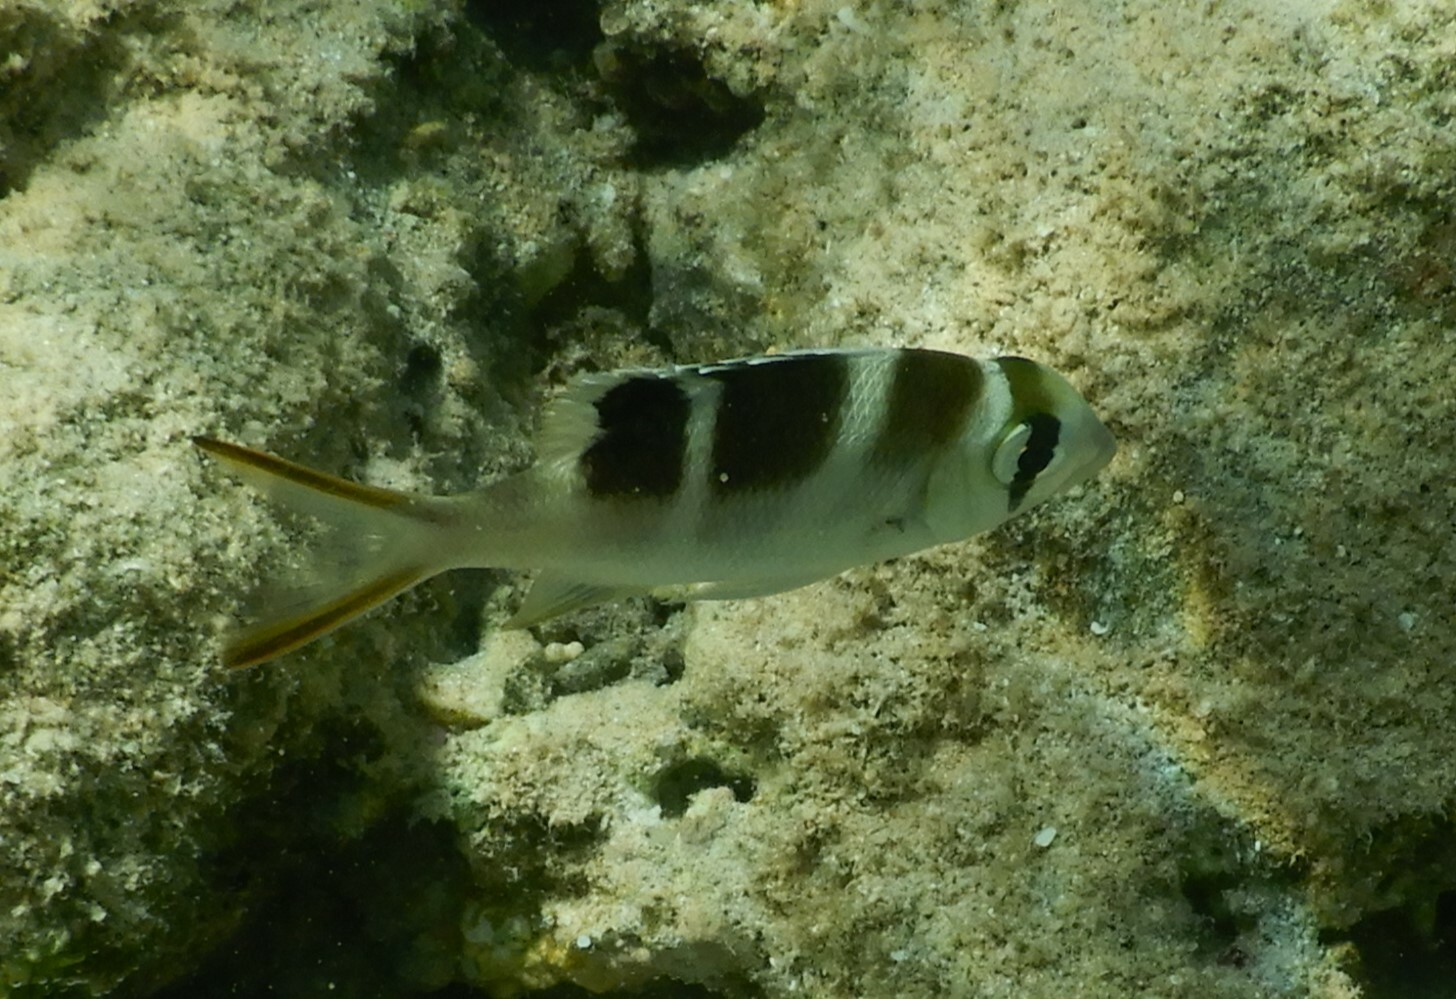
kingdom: Animalia
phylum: Chordata
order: Perciformes
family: Lethrinidae
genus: Monotaxis
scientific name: Monotaxis grandoculis
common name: Bigeye emperor
